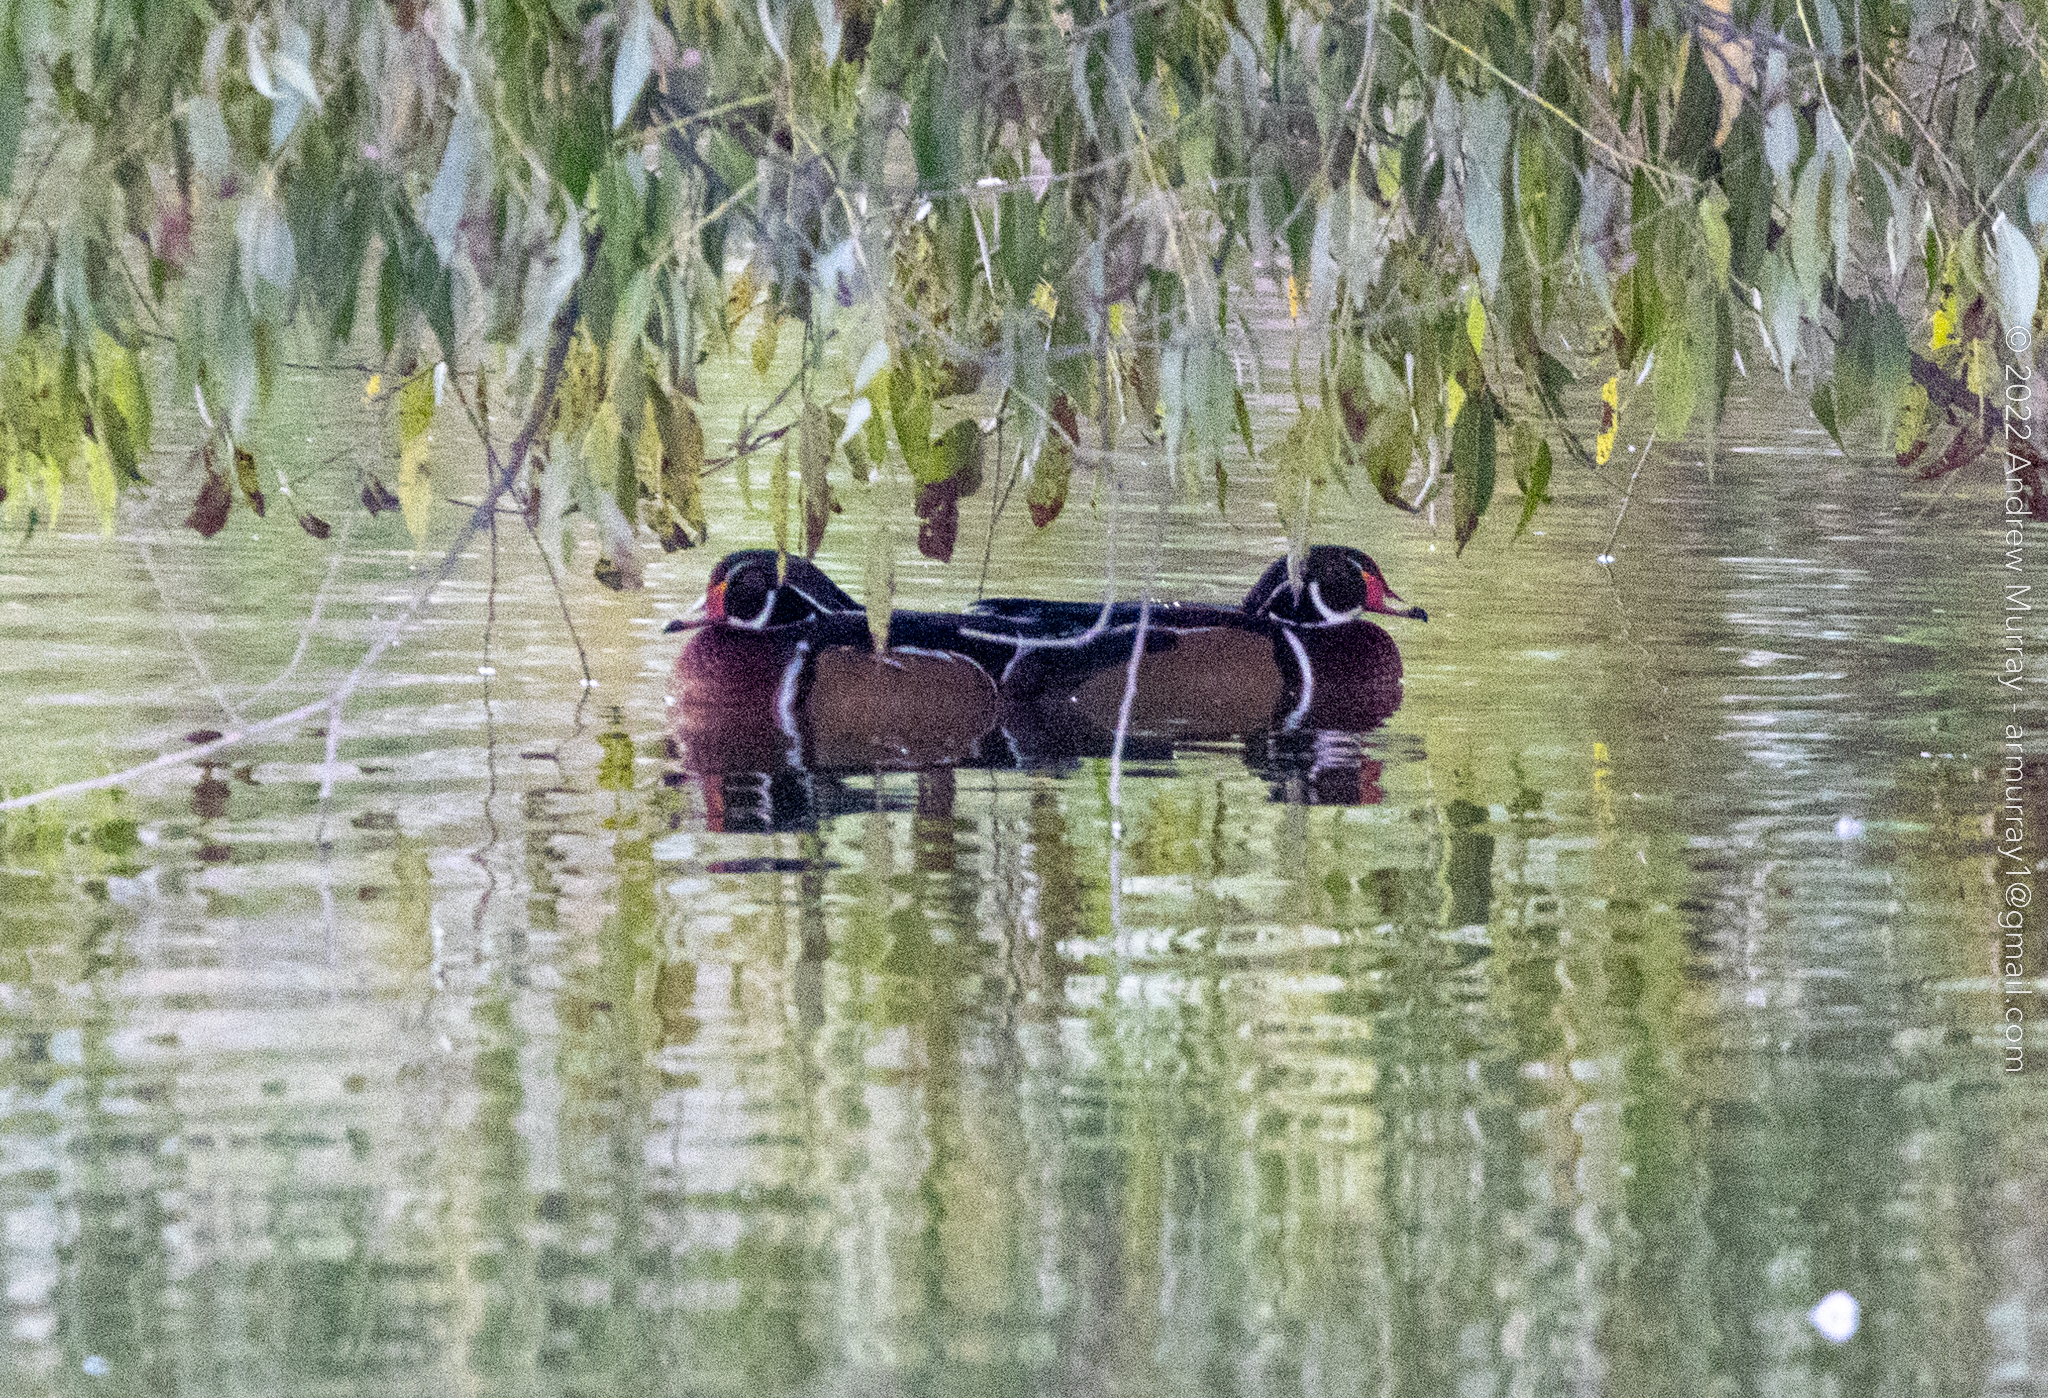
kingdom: Animalia
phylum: Chordata
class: Aves
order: Anseriformes
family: Anatidae
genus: Aix
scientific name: Aix sponsa
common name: Wood duck
